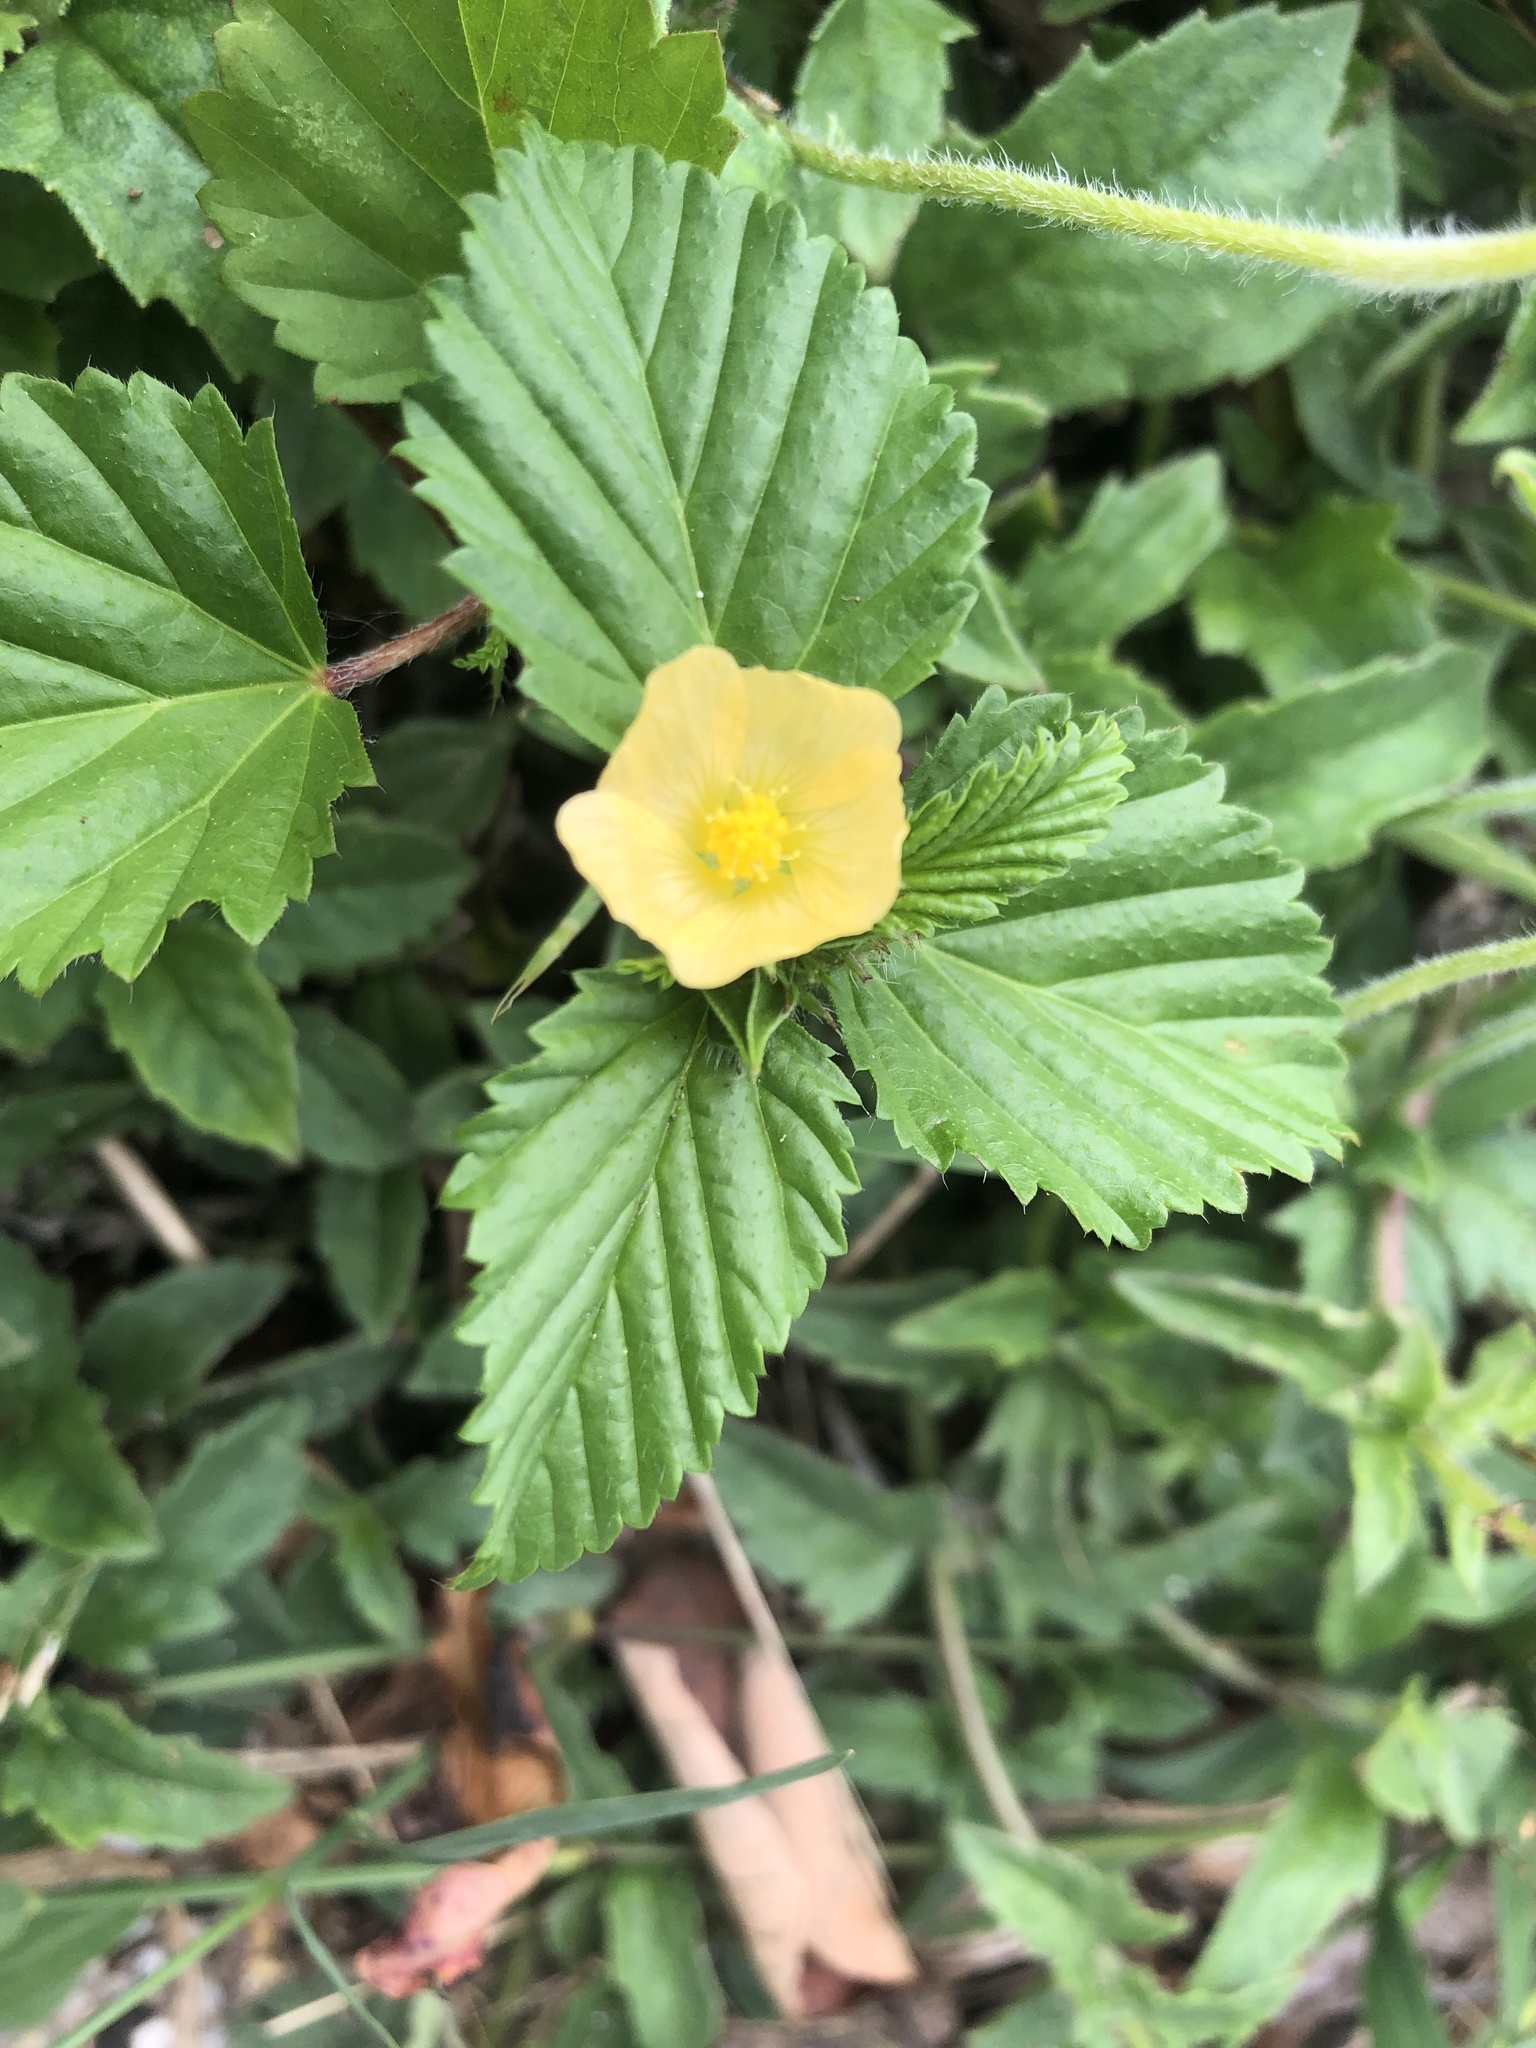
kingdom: Plantae
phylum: Tracheophyta
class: Magnoliopsida
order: Malvales
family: Malvaceae
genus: Malvastrum
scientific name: Malvastrum coromandelianum
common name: Threelobe false mallow
